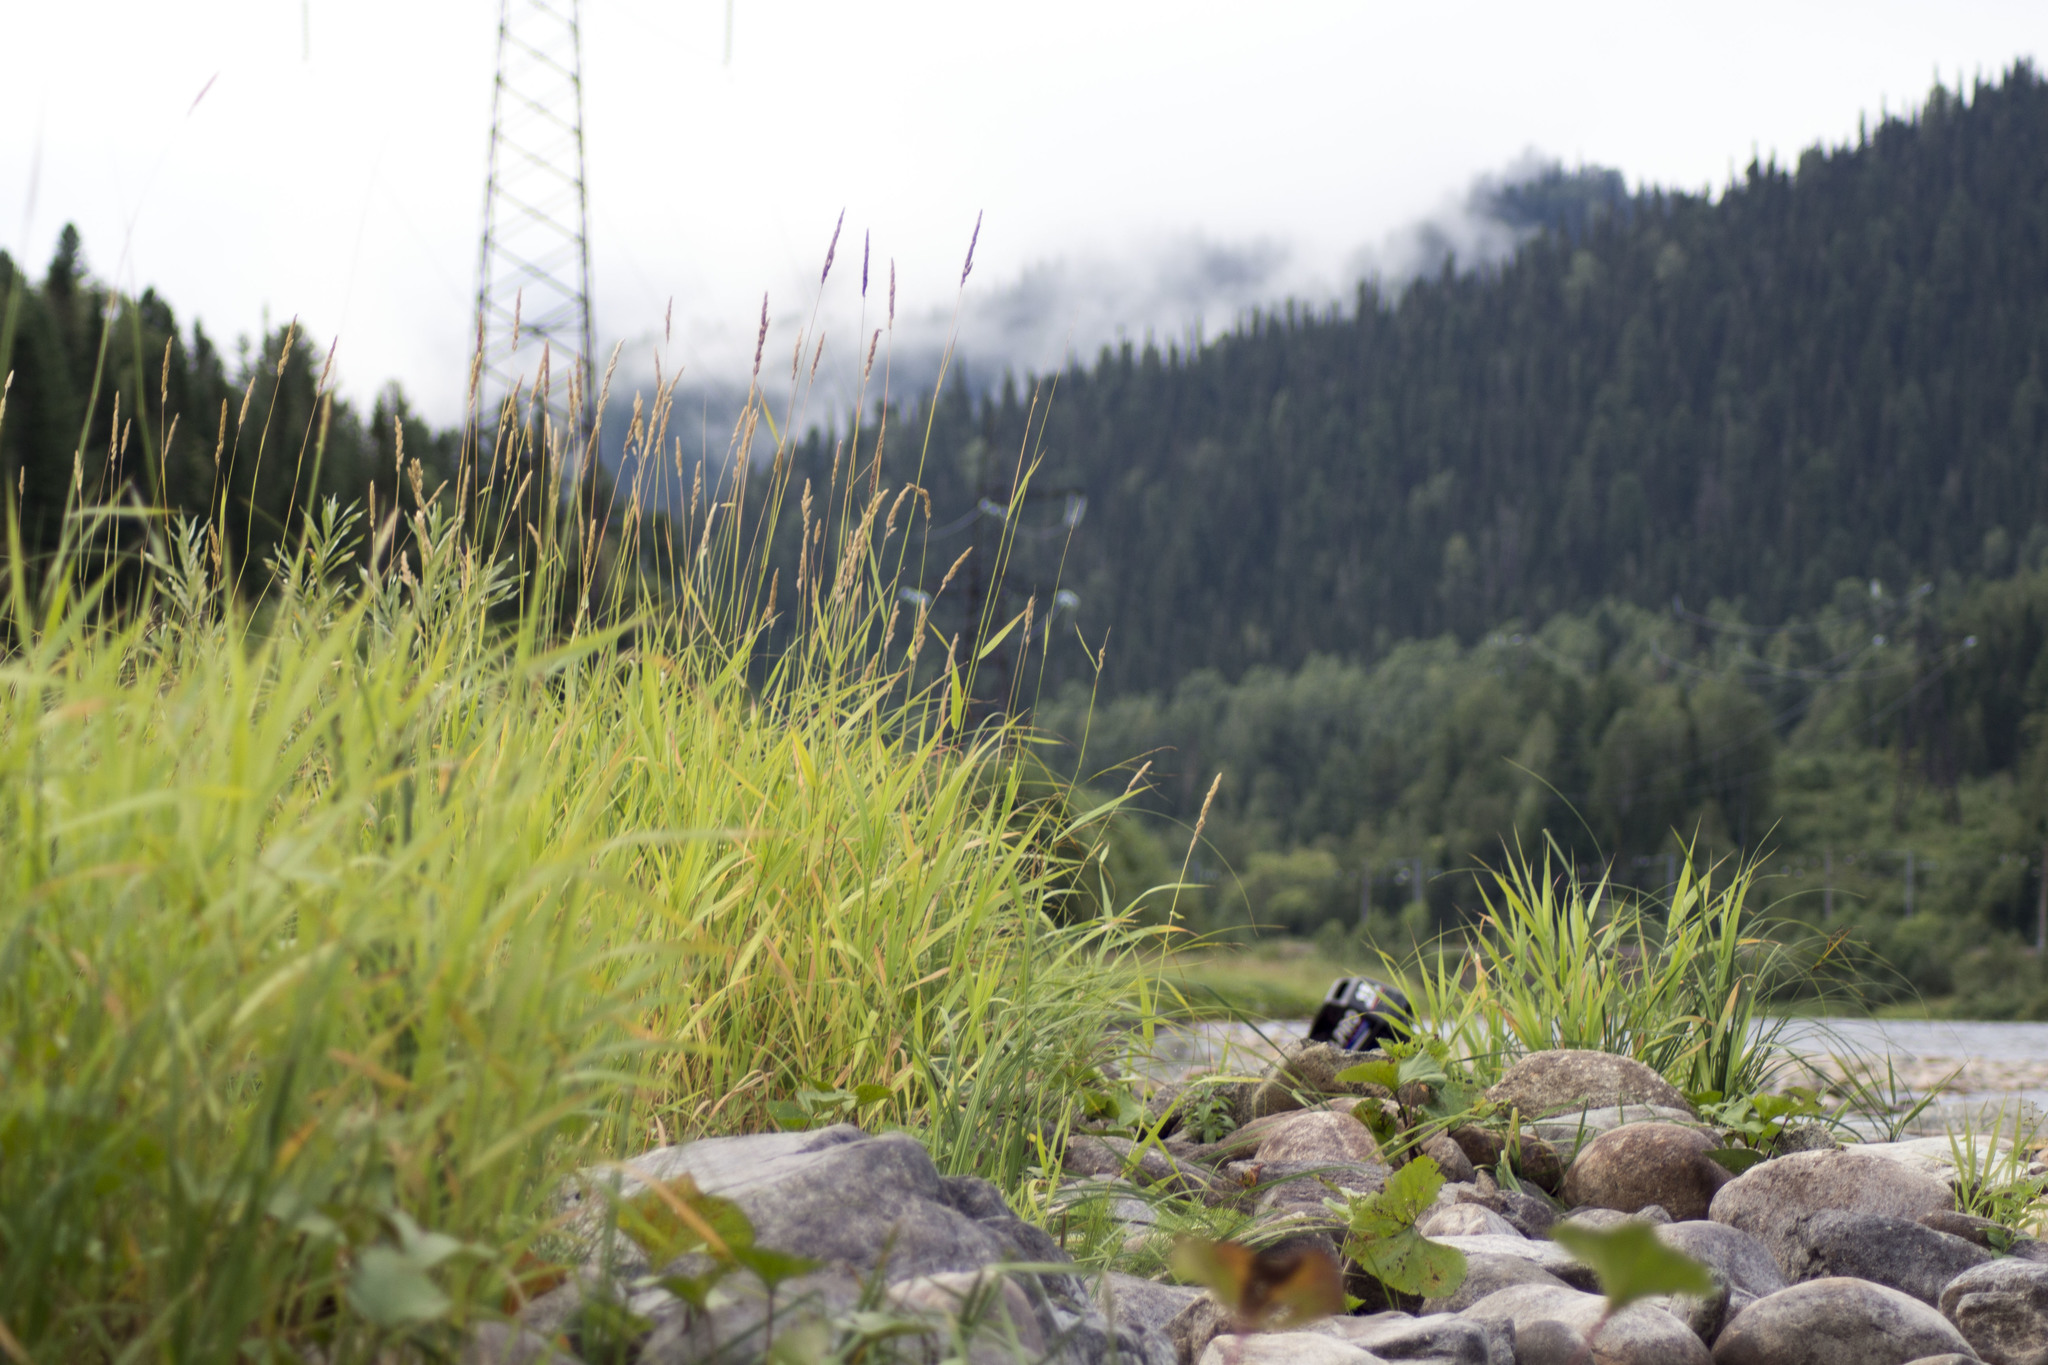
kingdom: Plantae
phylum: Tracheophyta
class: Liliopsida
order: Poales
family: Poaceae
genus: Phalaris
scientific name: Phalaris arundinacea
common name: Reed canary-grass
